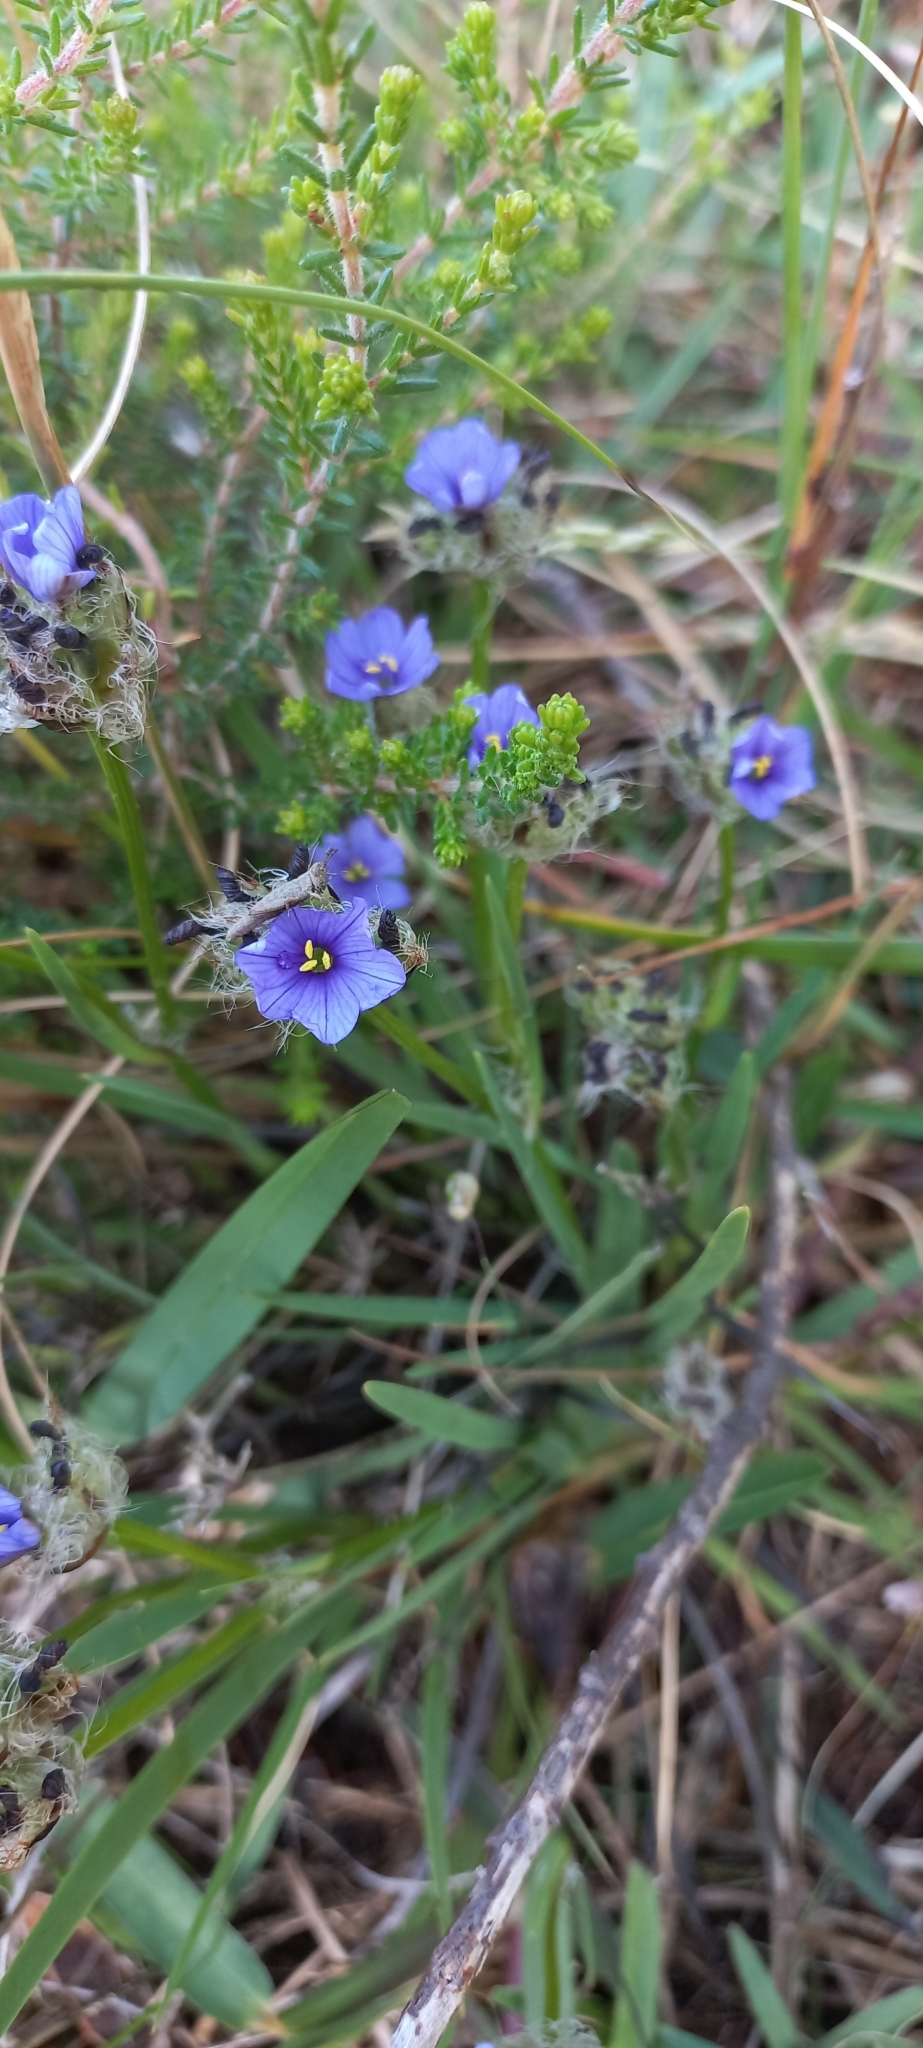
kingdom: Plantae
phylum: Tracheophyta
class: Liliopsida
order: Asparagales
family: Iridaceae
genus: Aristea
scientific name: Aristea africana
